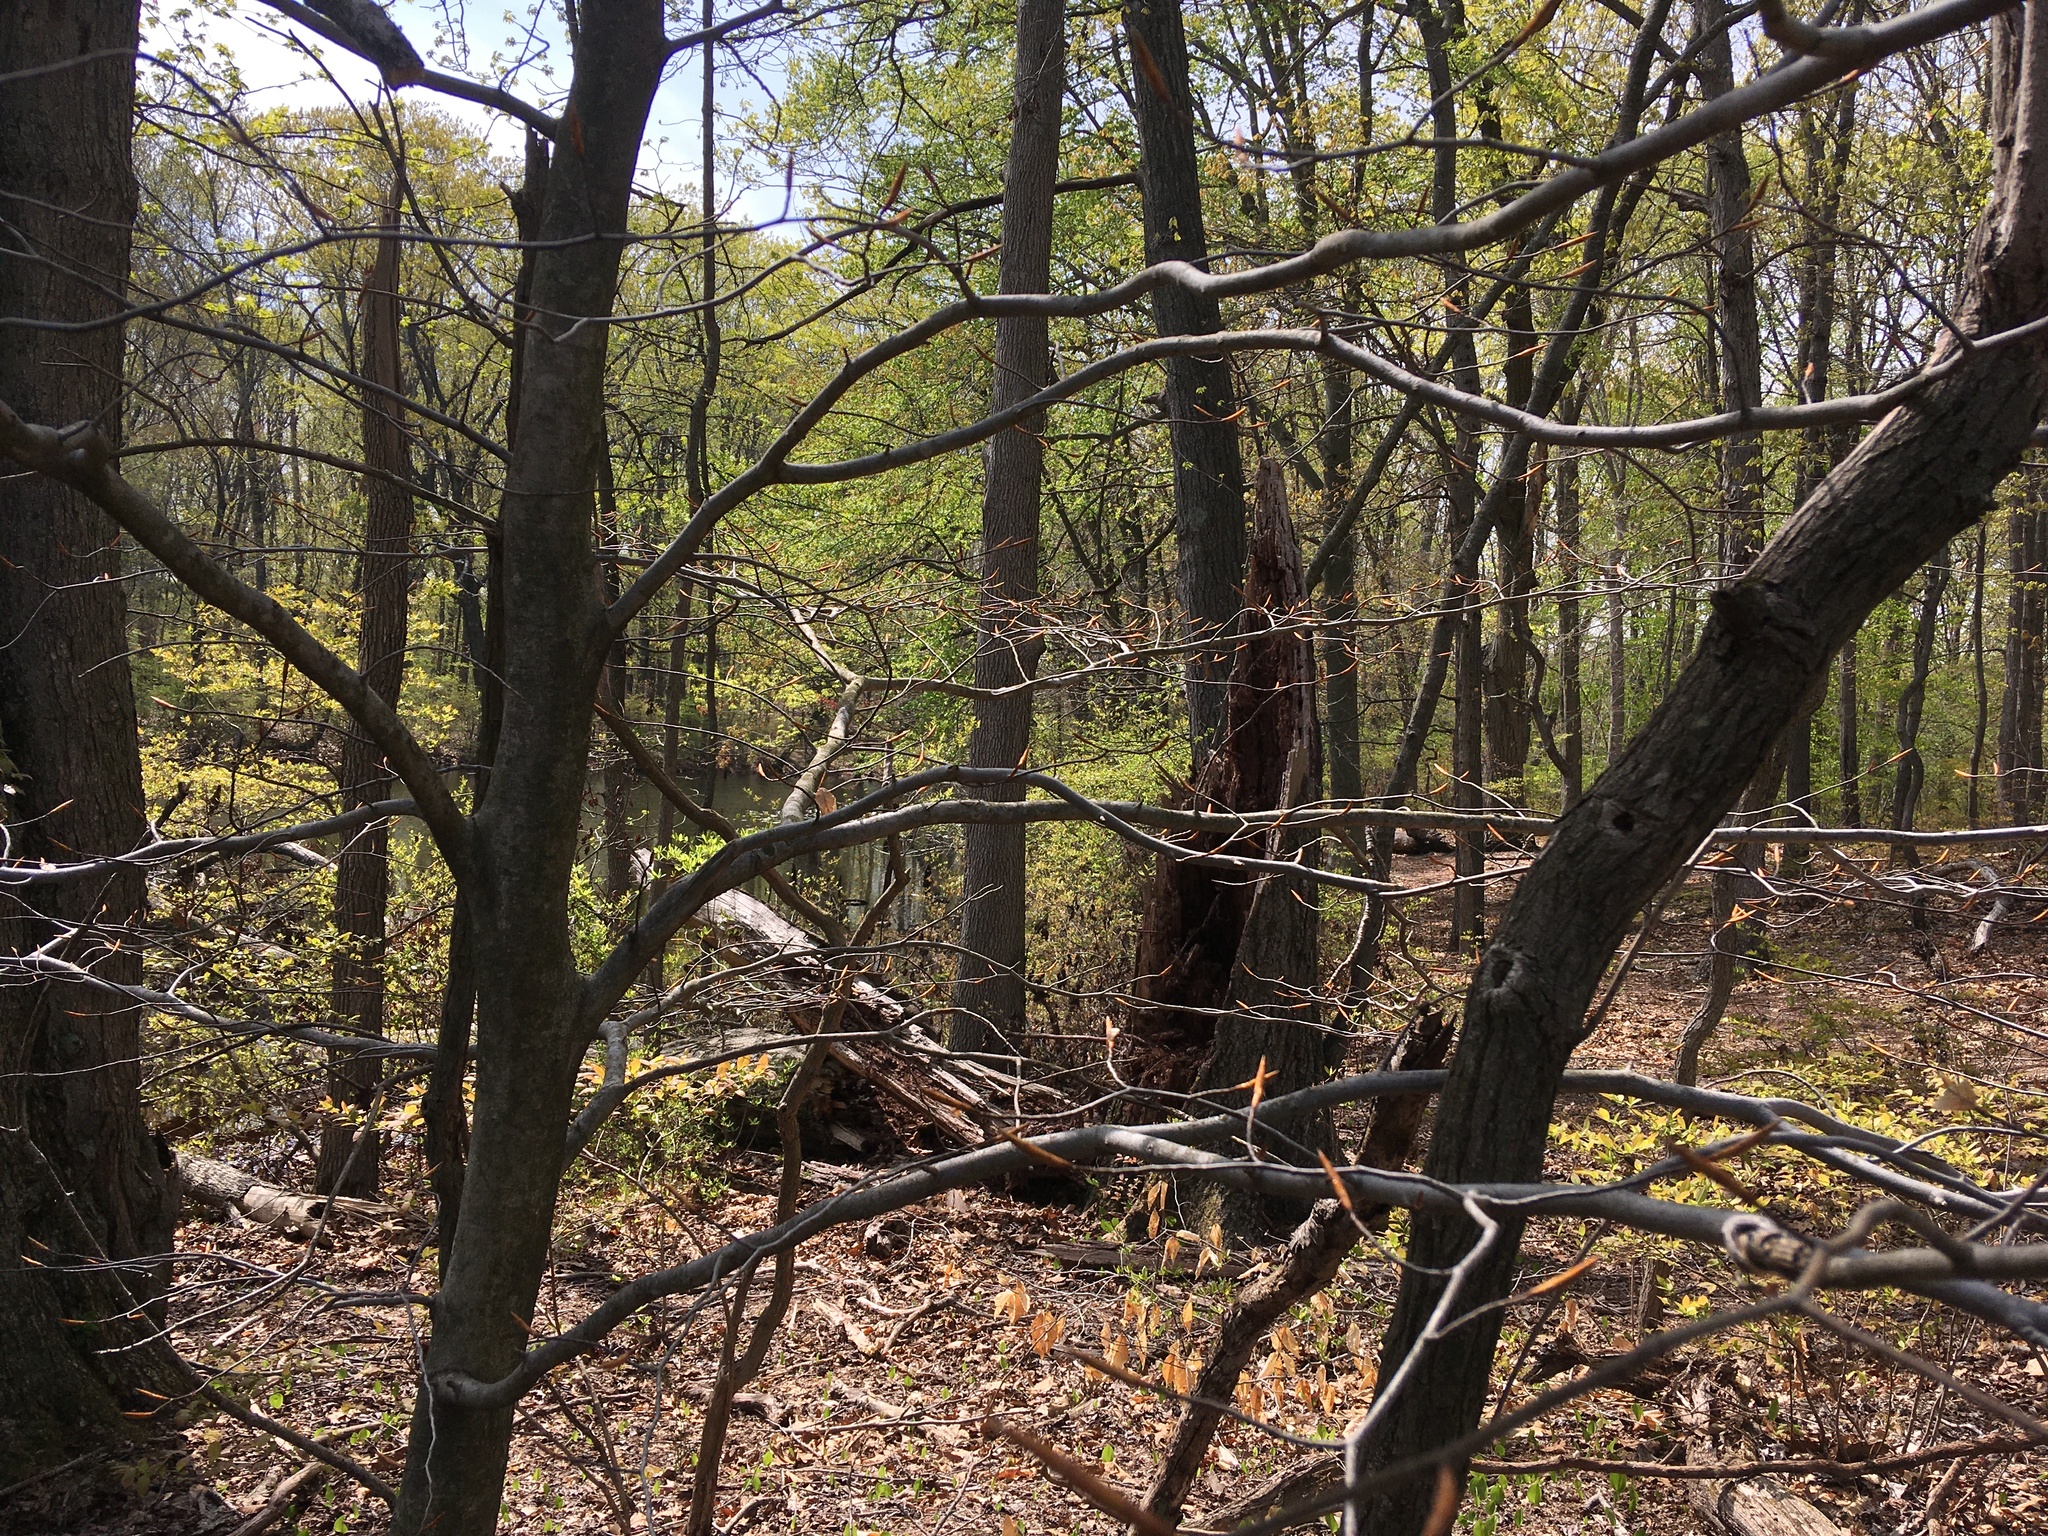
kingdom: Plantae
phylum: Tracheophyta
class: Magnoliopsida
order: Fagales
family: Fagaceae
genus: Fagus
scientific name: Fagus grandifolia
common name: American beech
